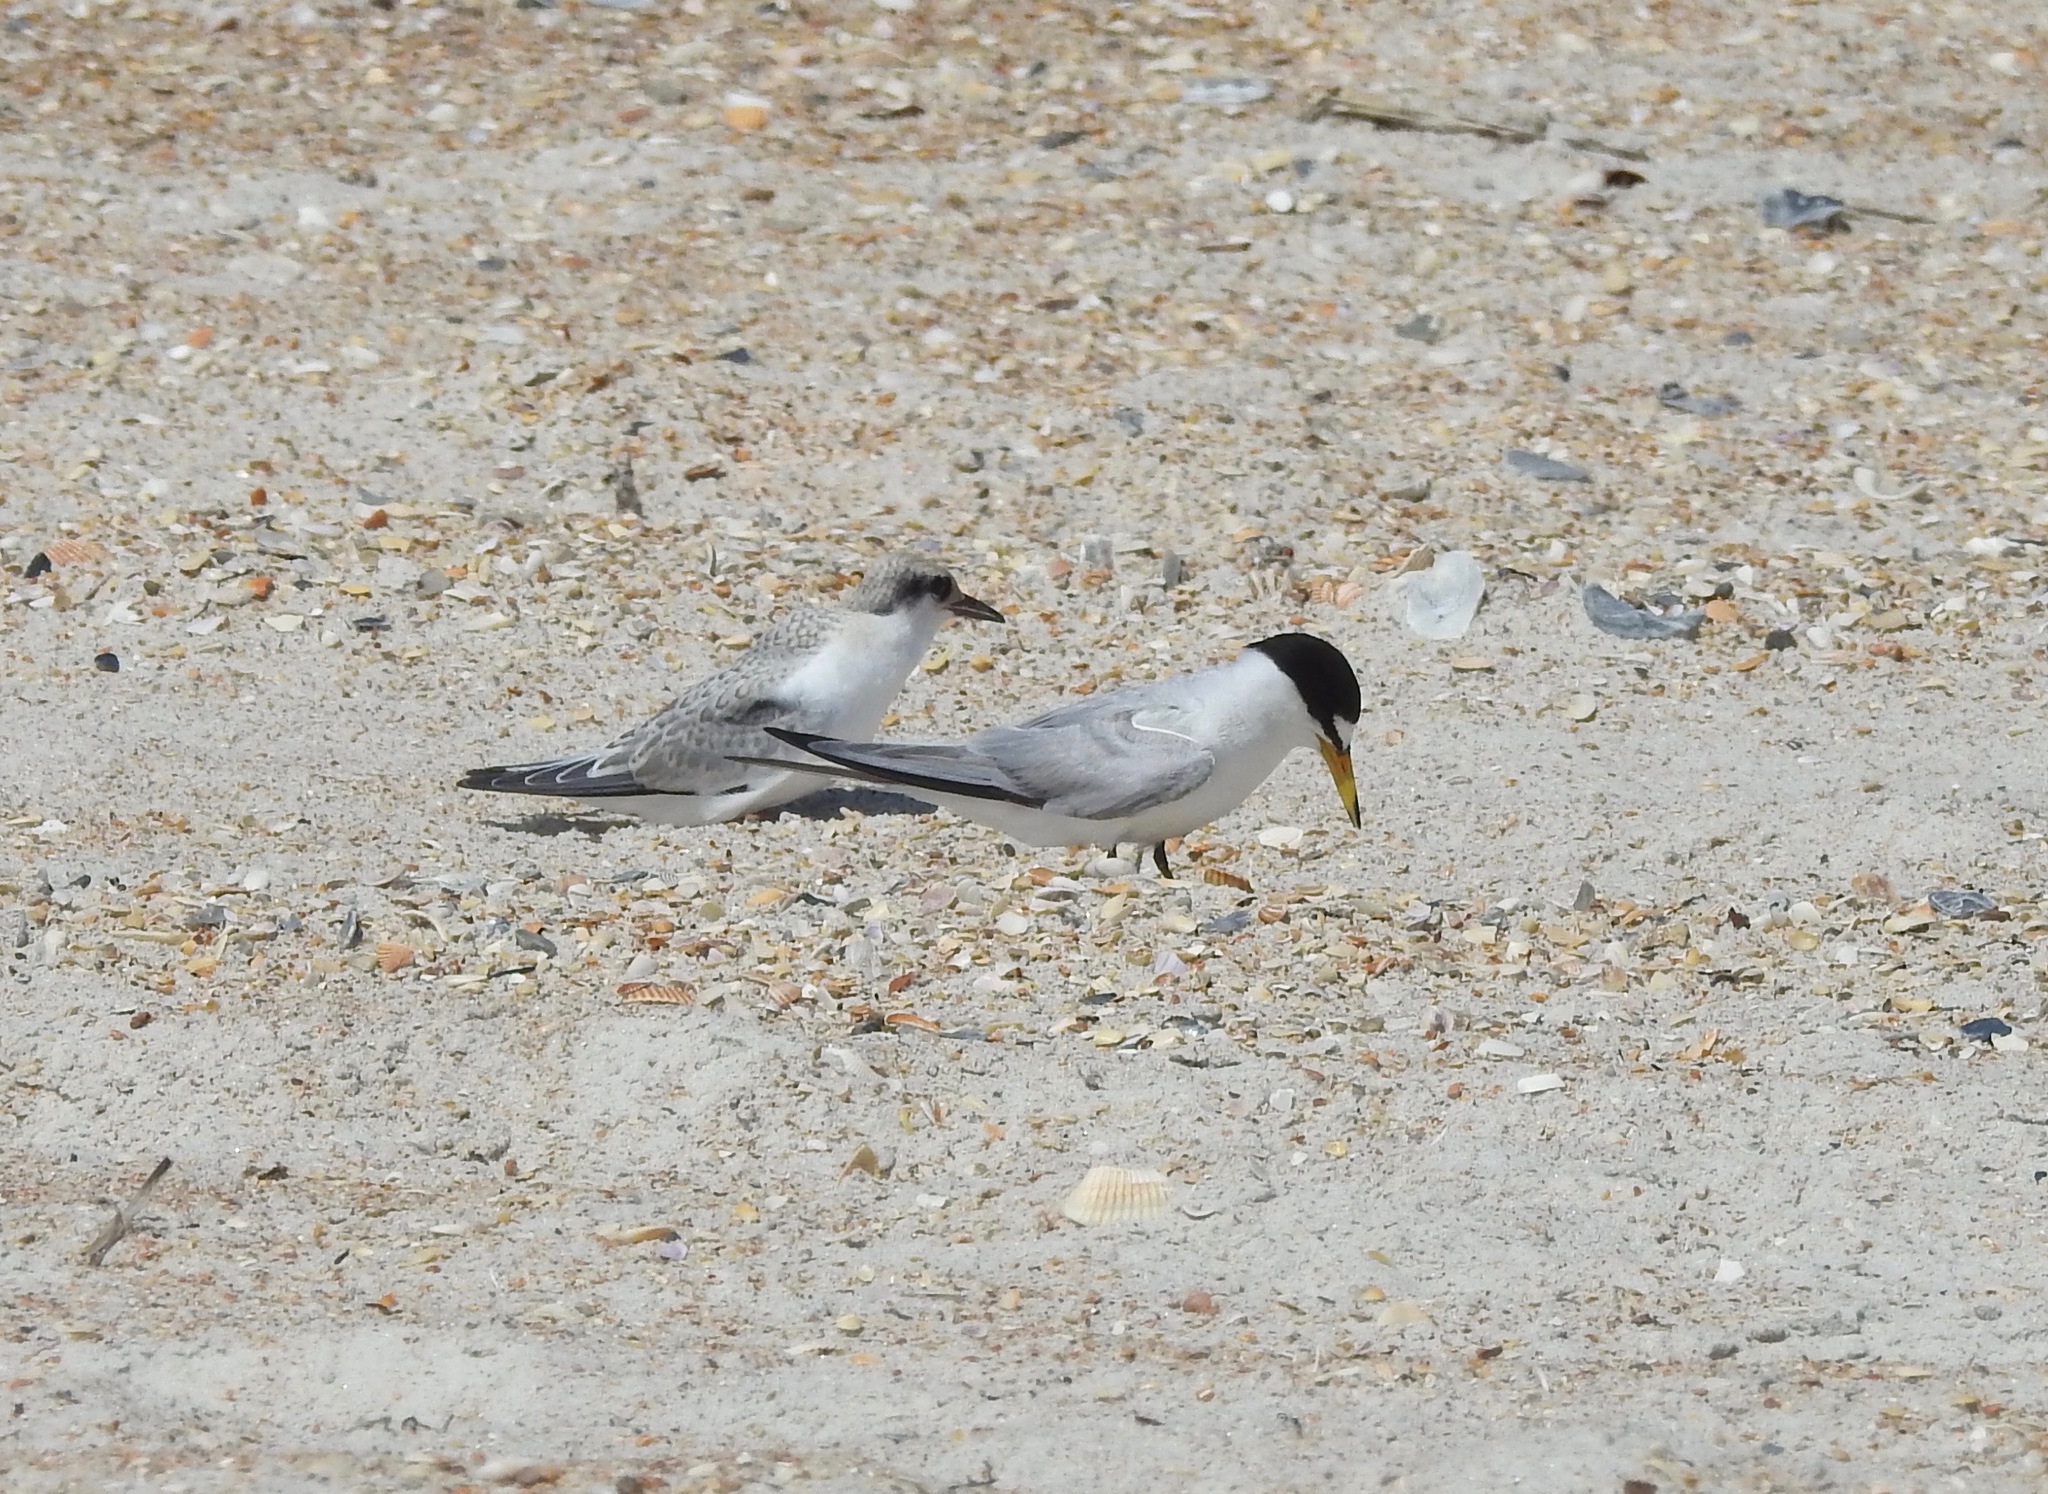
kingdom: Animalia
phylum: Chordata
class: Aves
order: Charadriiformes
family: Laridae
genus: Sternula
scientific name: Sternula antillarum
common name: Least tern
